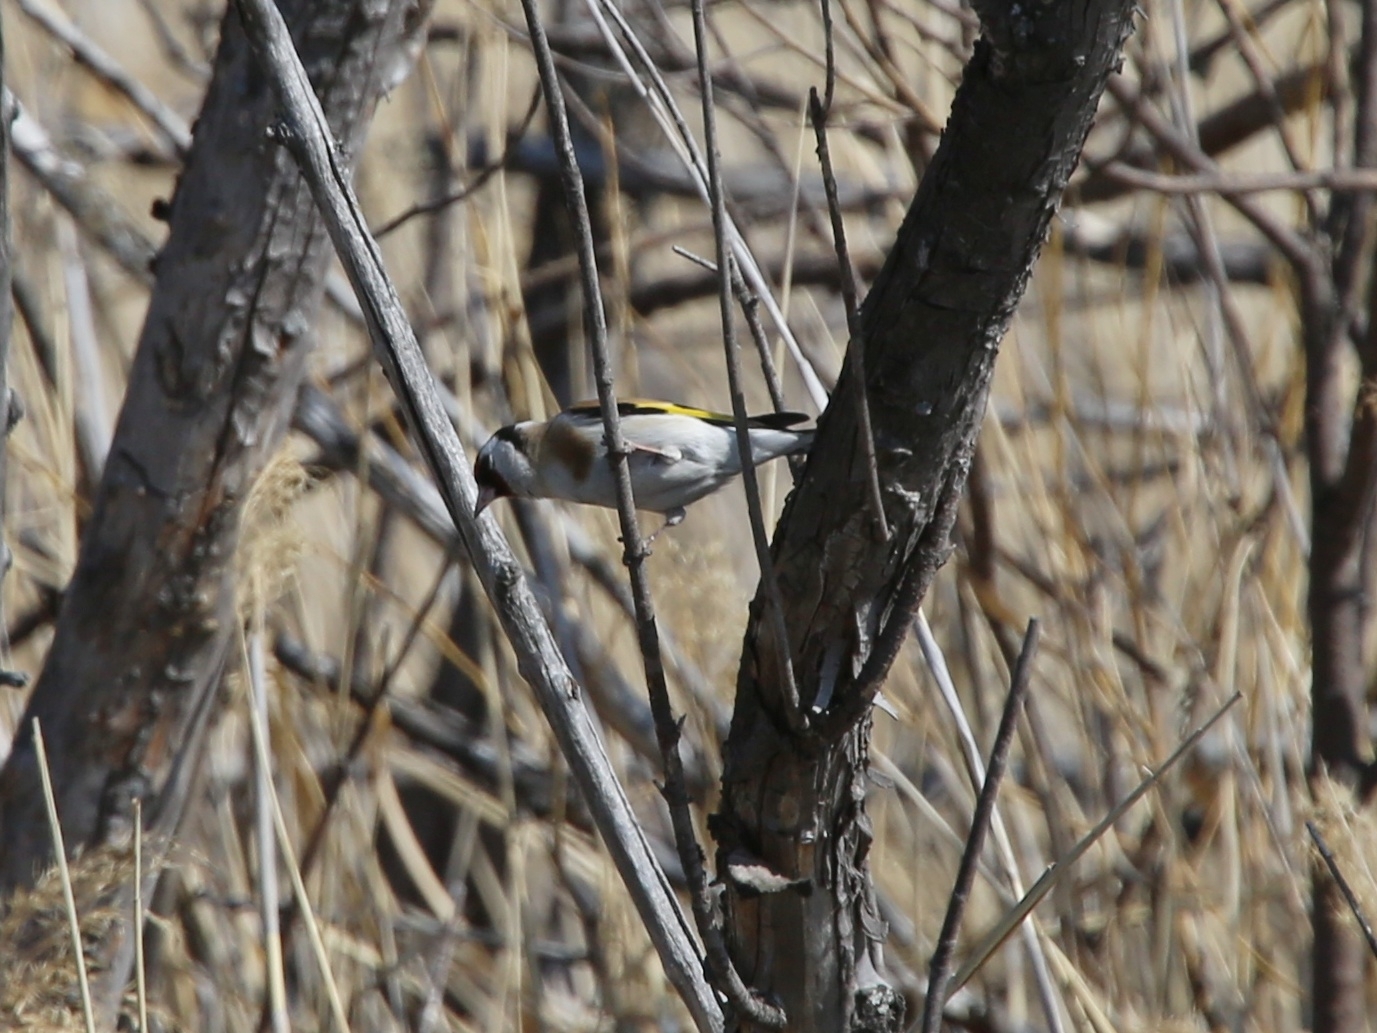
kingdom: Animalia
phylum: Chordata
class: Aves
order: Passeriformes
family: Fringillidae
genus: Carduelis
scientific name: Carduelis carduelis
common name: European goldfinch
